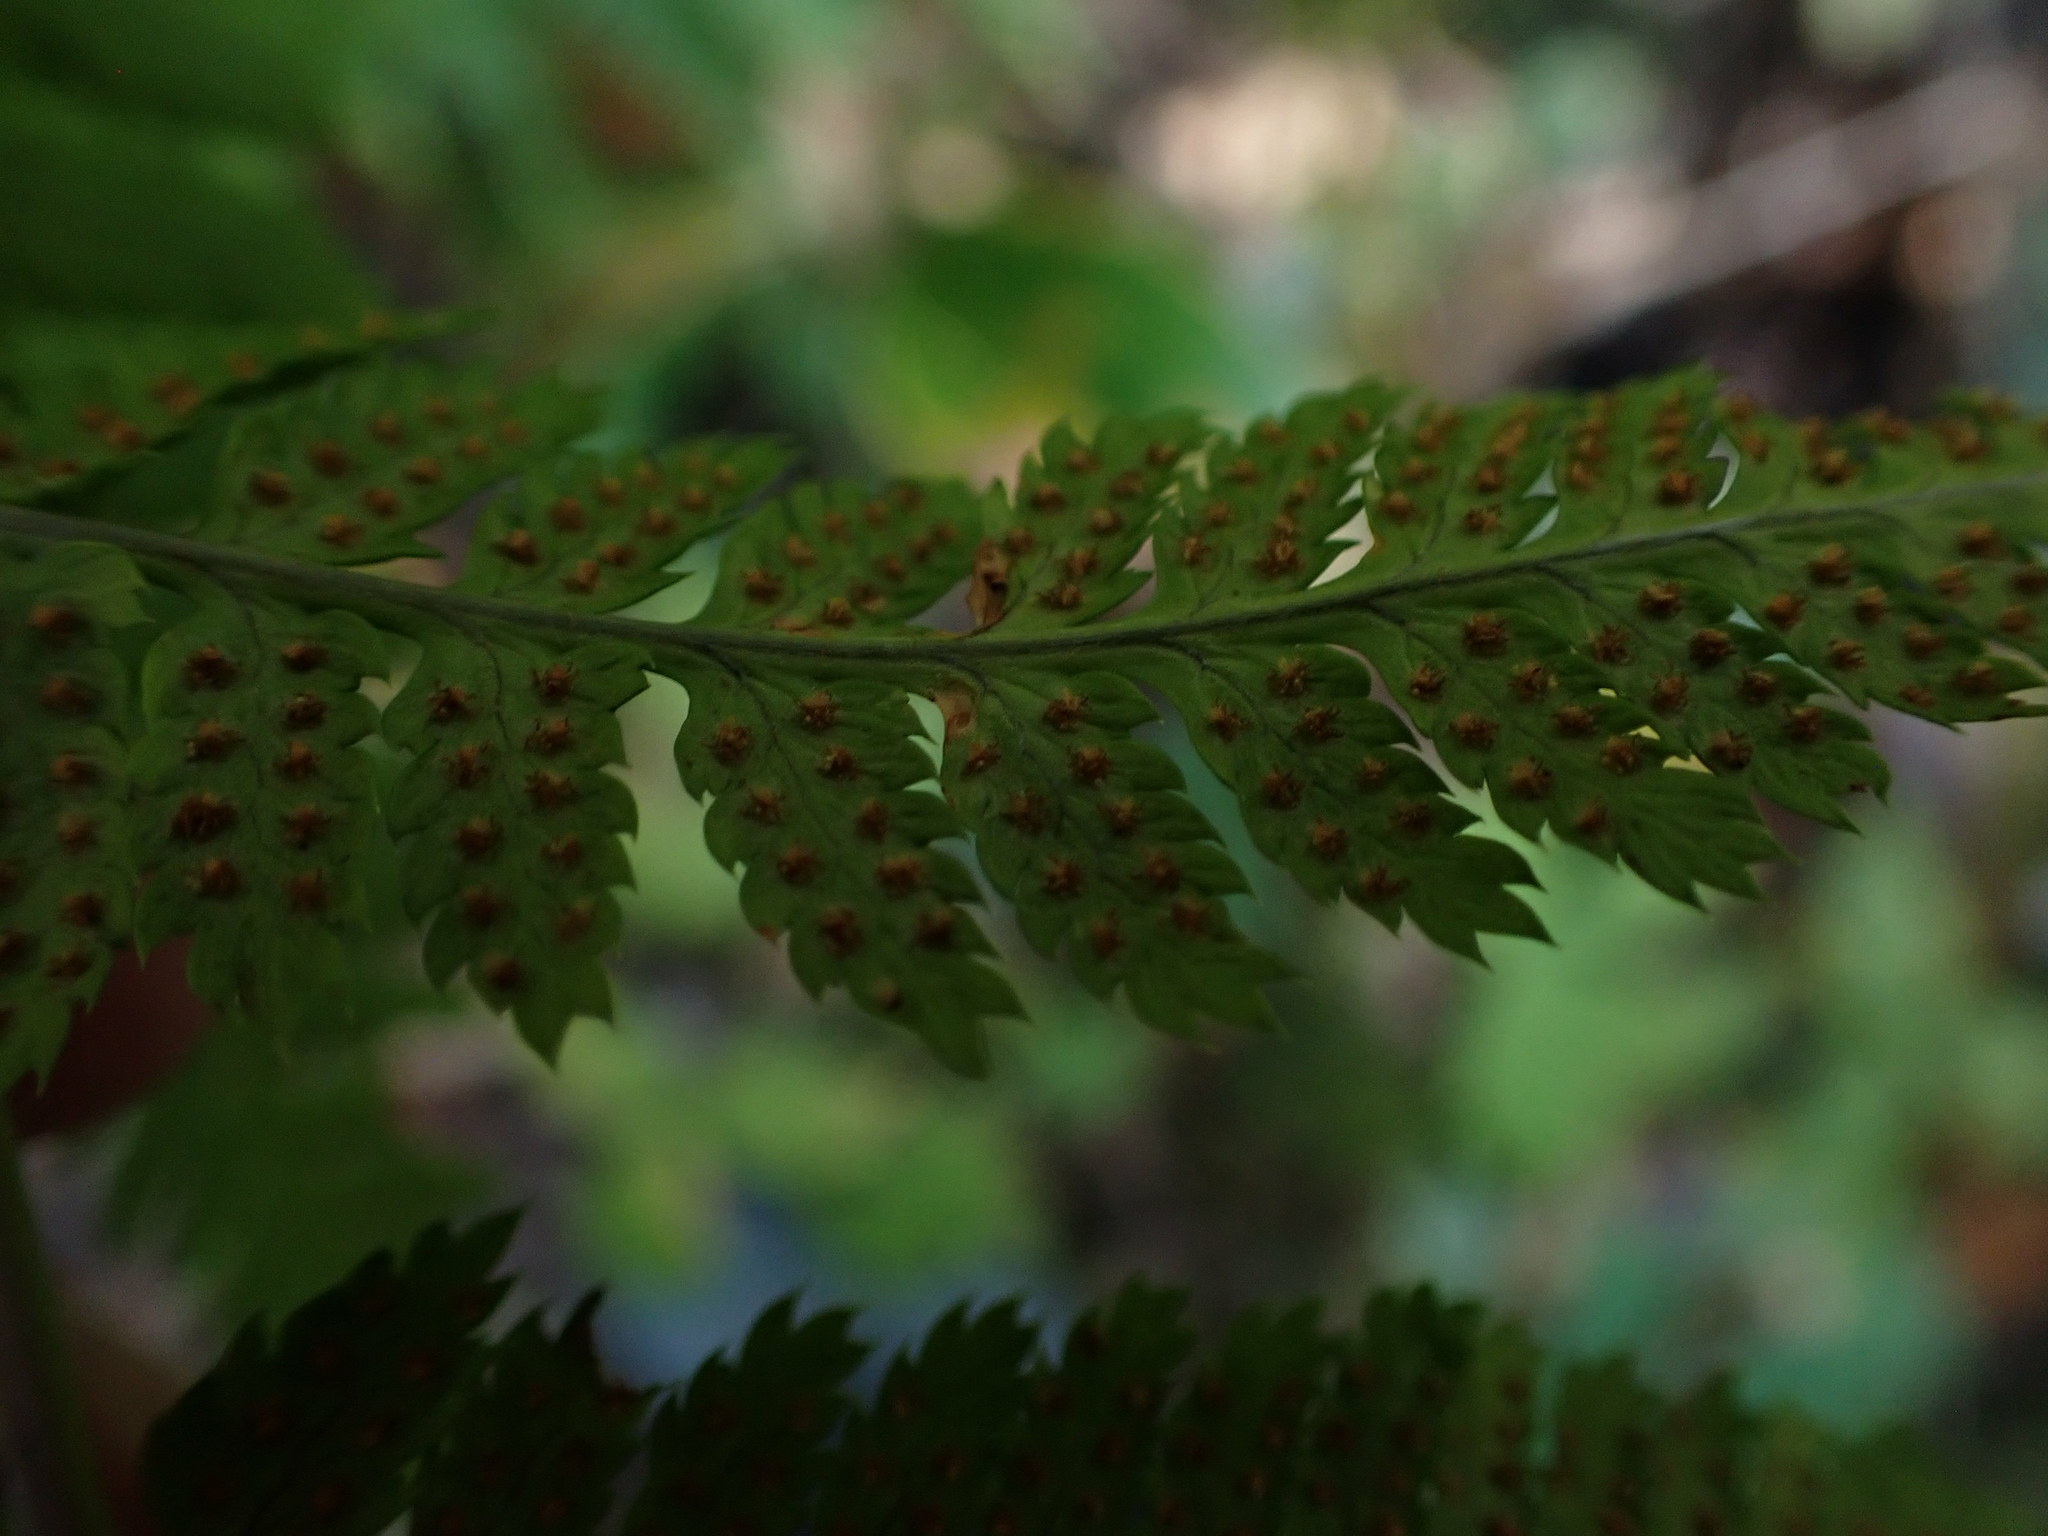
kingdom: Plantae
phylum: Tracheophyta
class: Polypodiopsida
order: Polypodiales
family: Dryopteridaceae
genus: Dryopteris
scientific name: Dryopteris carthusiana
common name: Narrow buckler-fern
